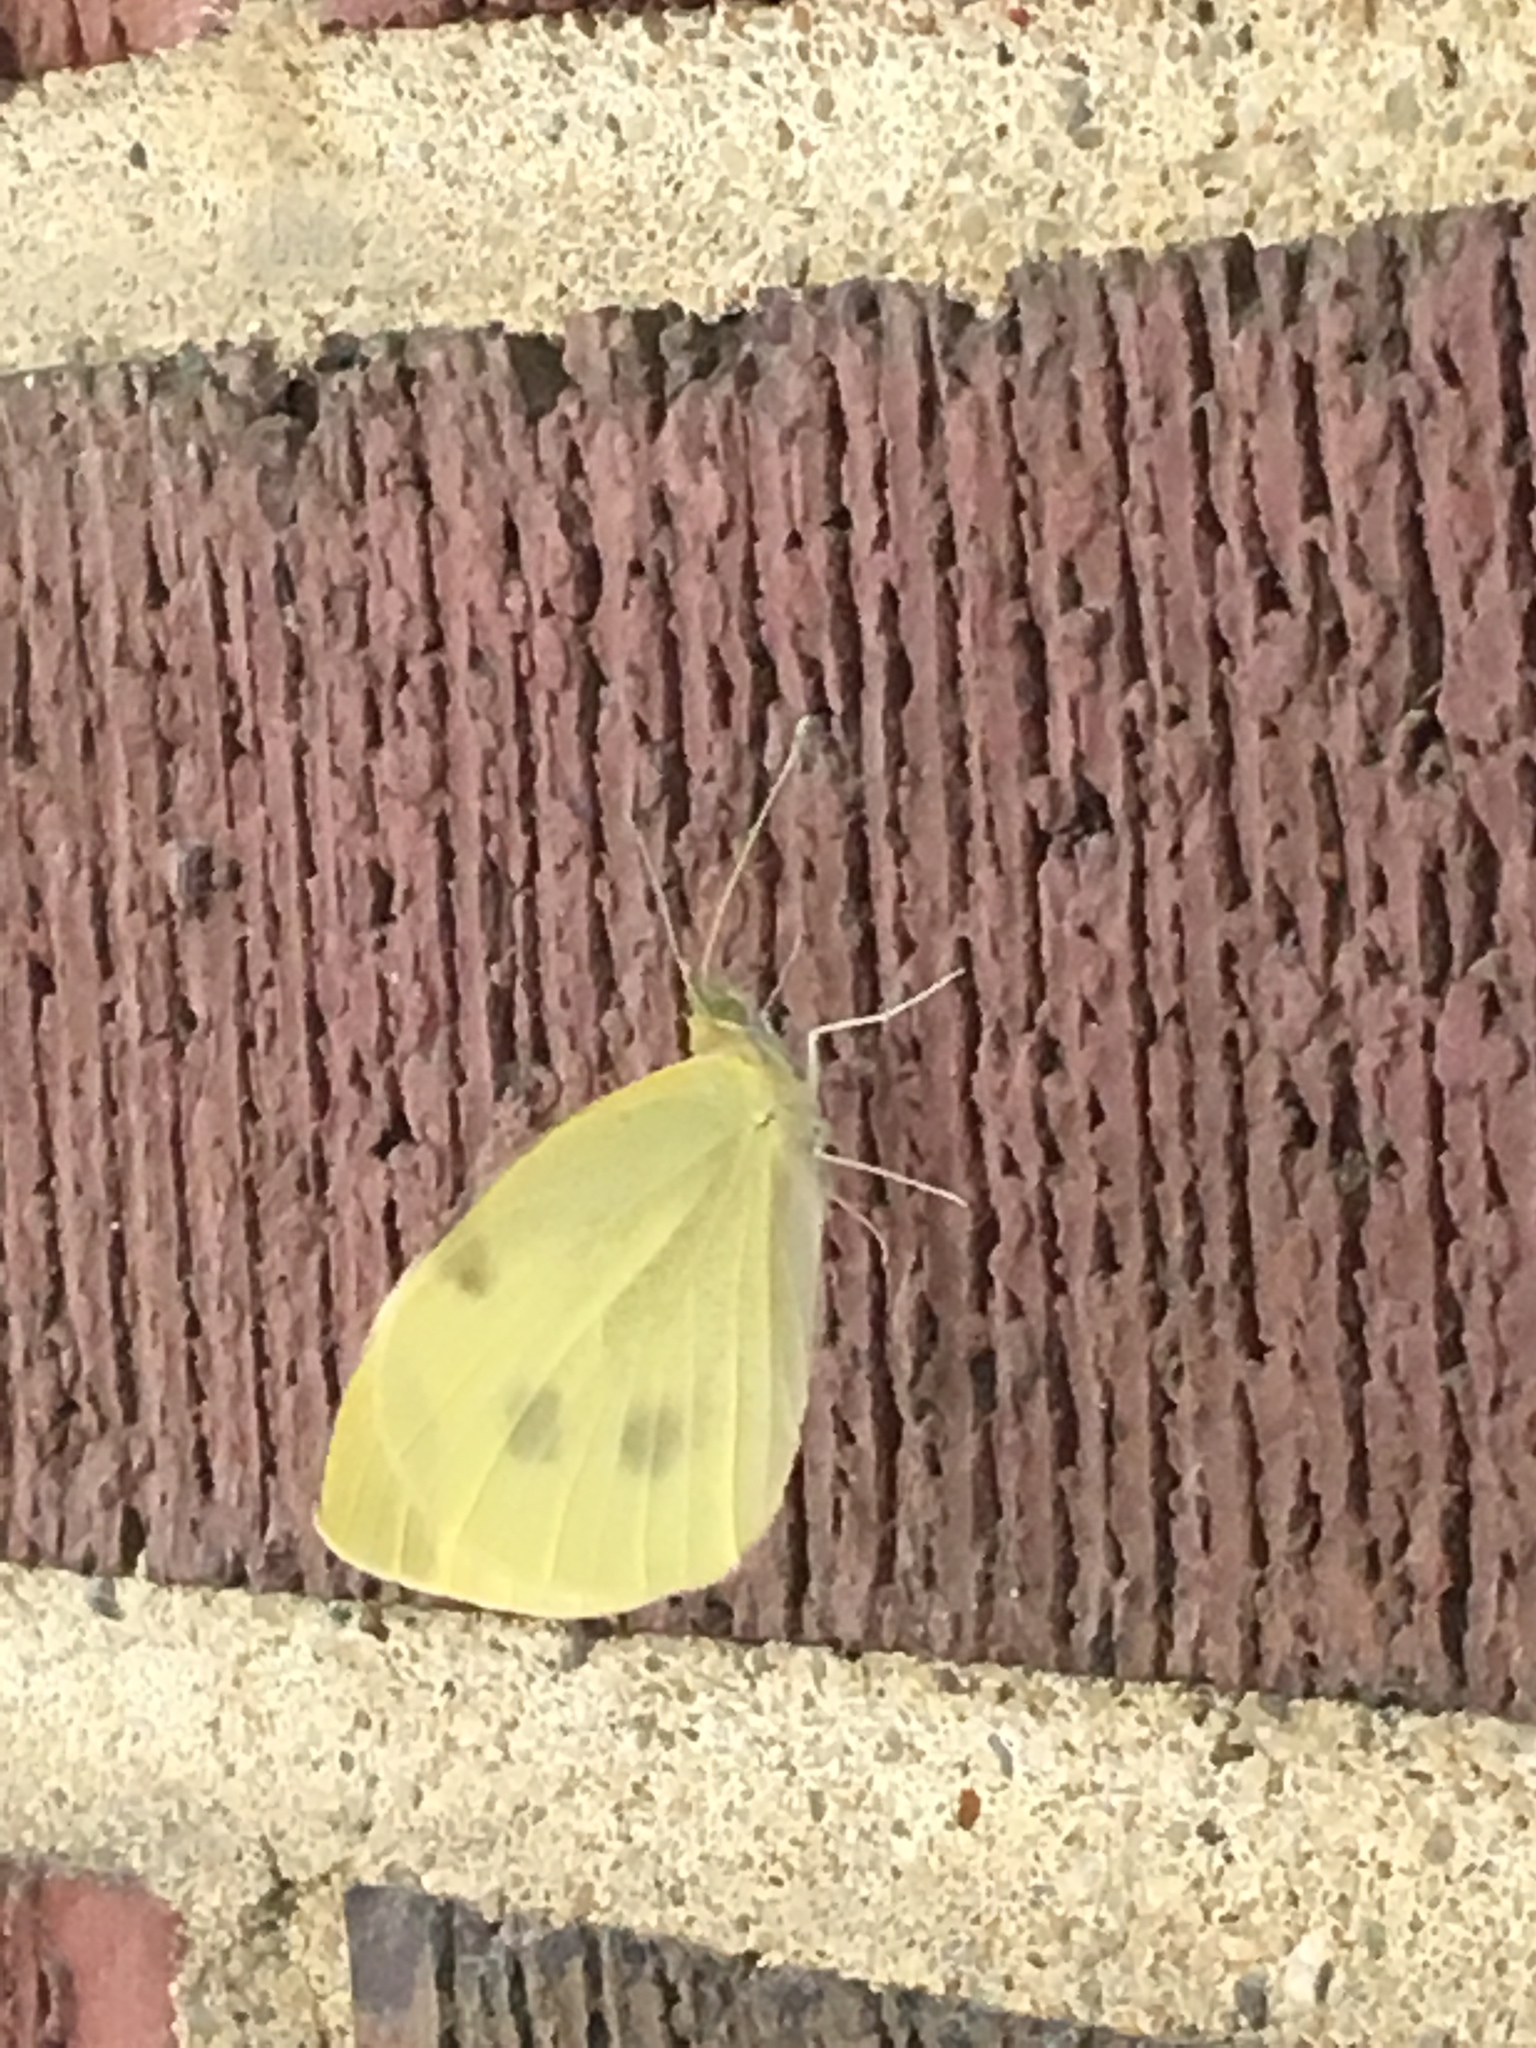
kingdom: Animalia
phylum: Arthropoda
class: Insecta
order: Lepidoptera
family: Pieridae
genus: Pieris
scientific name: Pieris rapae
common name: Small white
